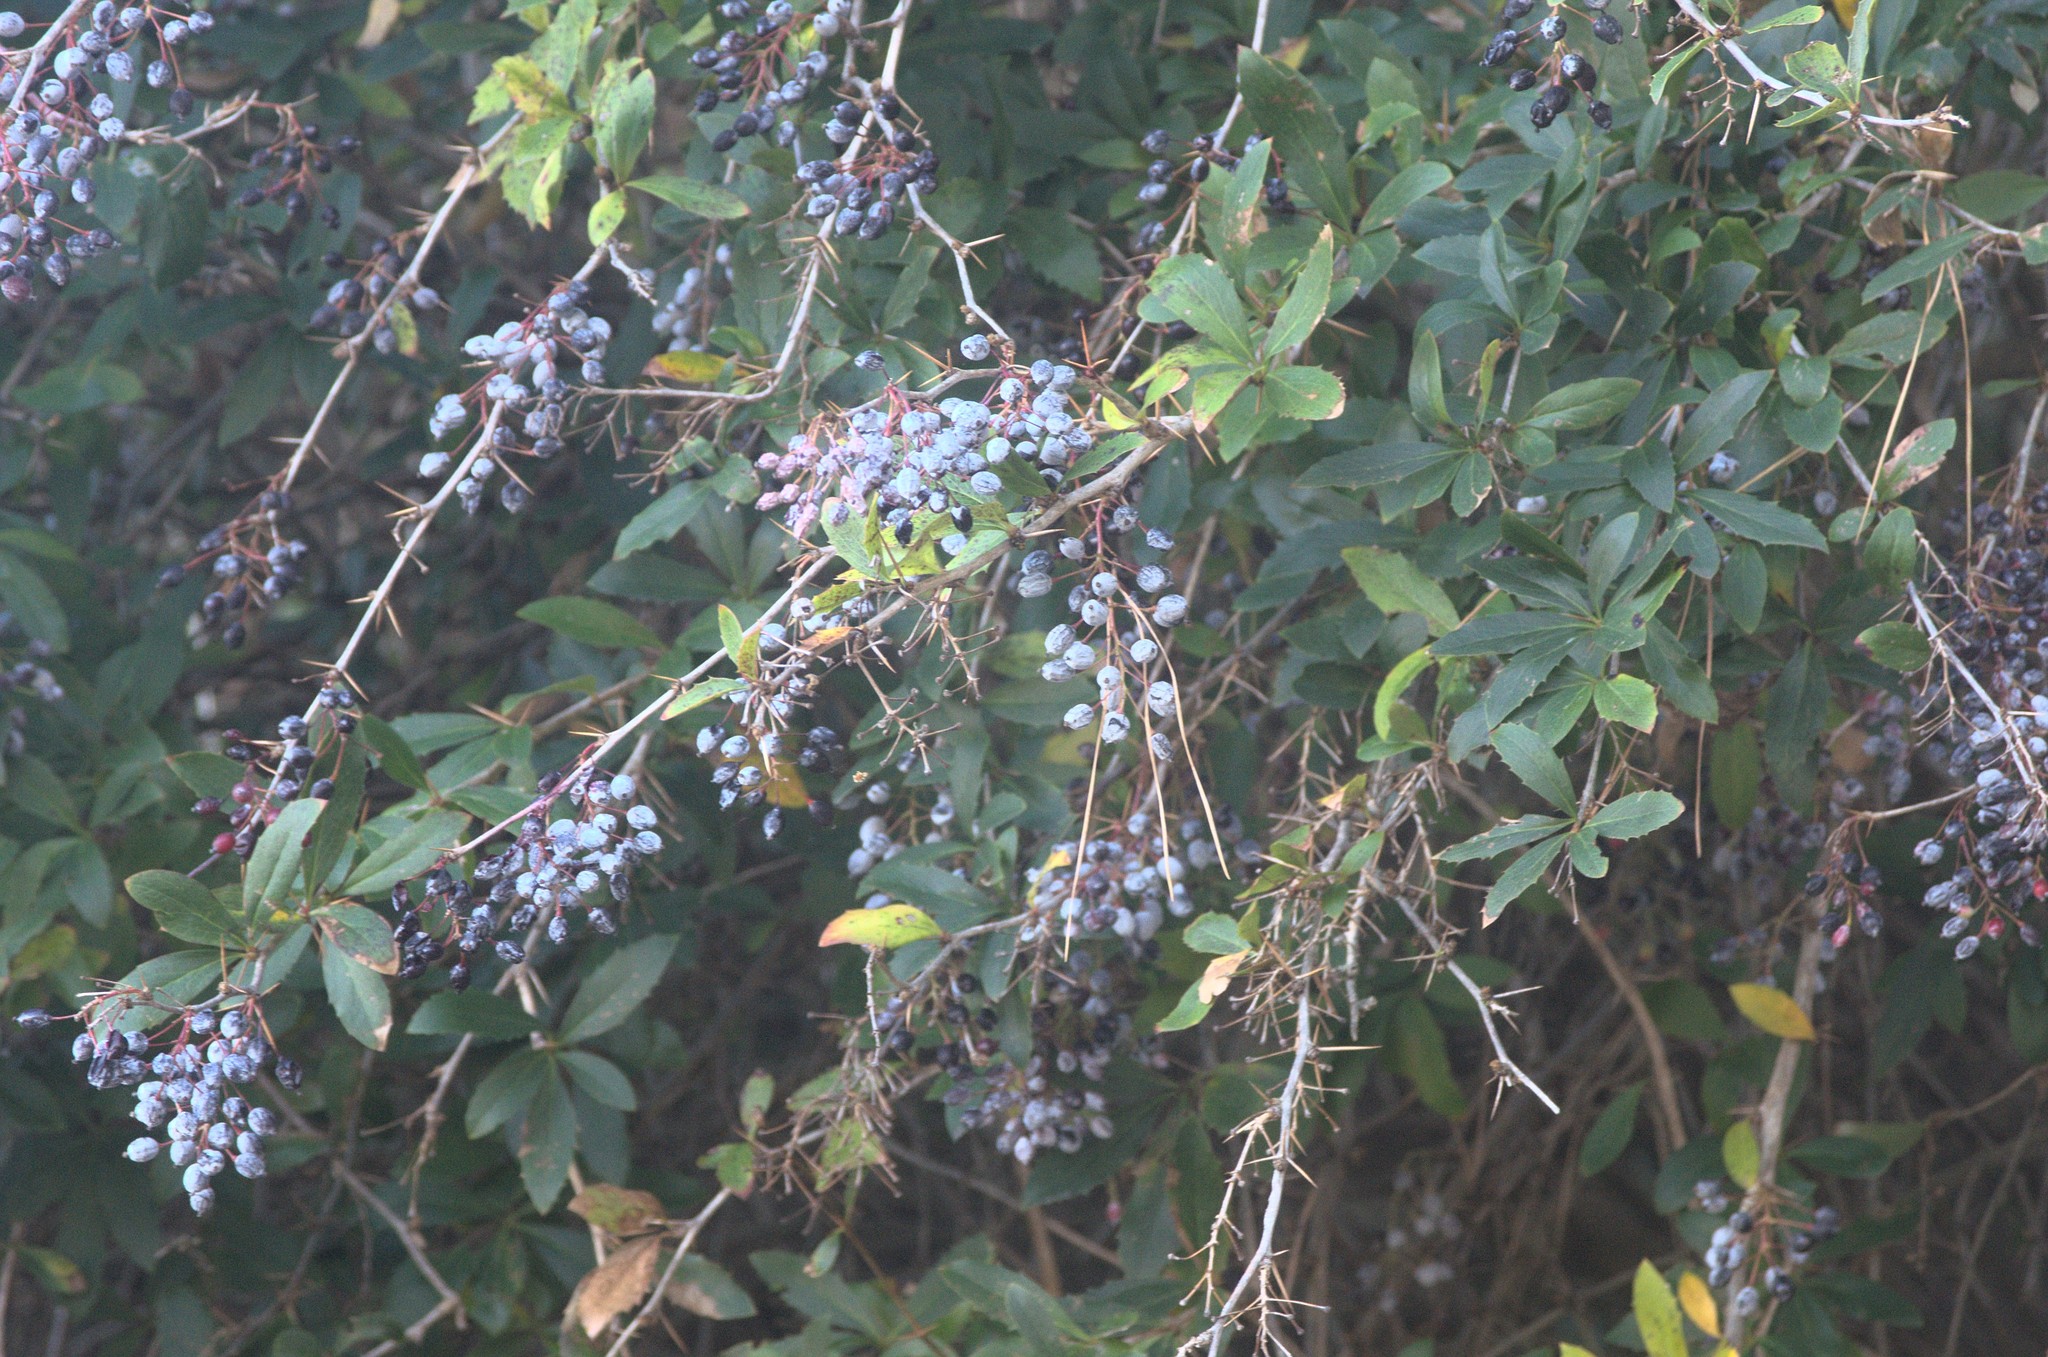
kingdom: Plantae
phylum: Tracheophyta
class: Magnoliopsida
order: Ranunculales
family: Berberidaceae
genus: Berberis
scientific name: Berberis glaucocarpa
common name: Great barberry
